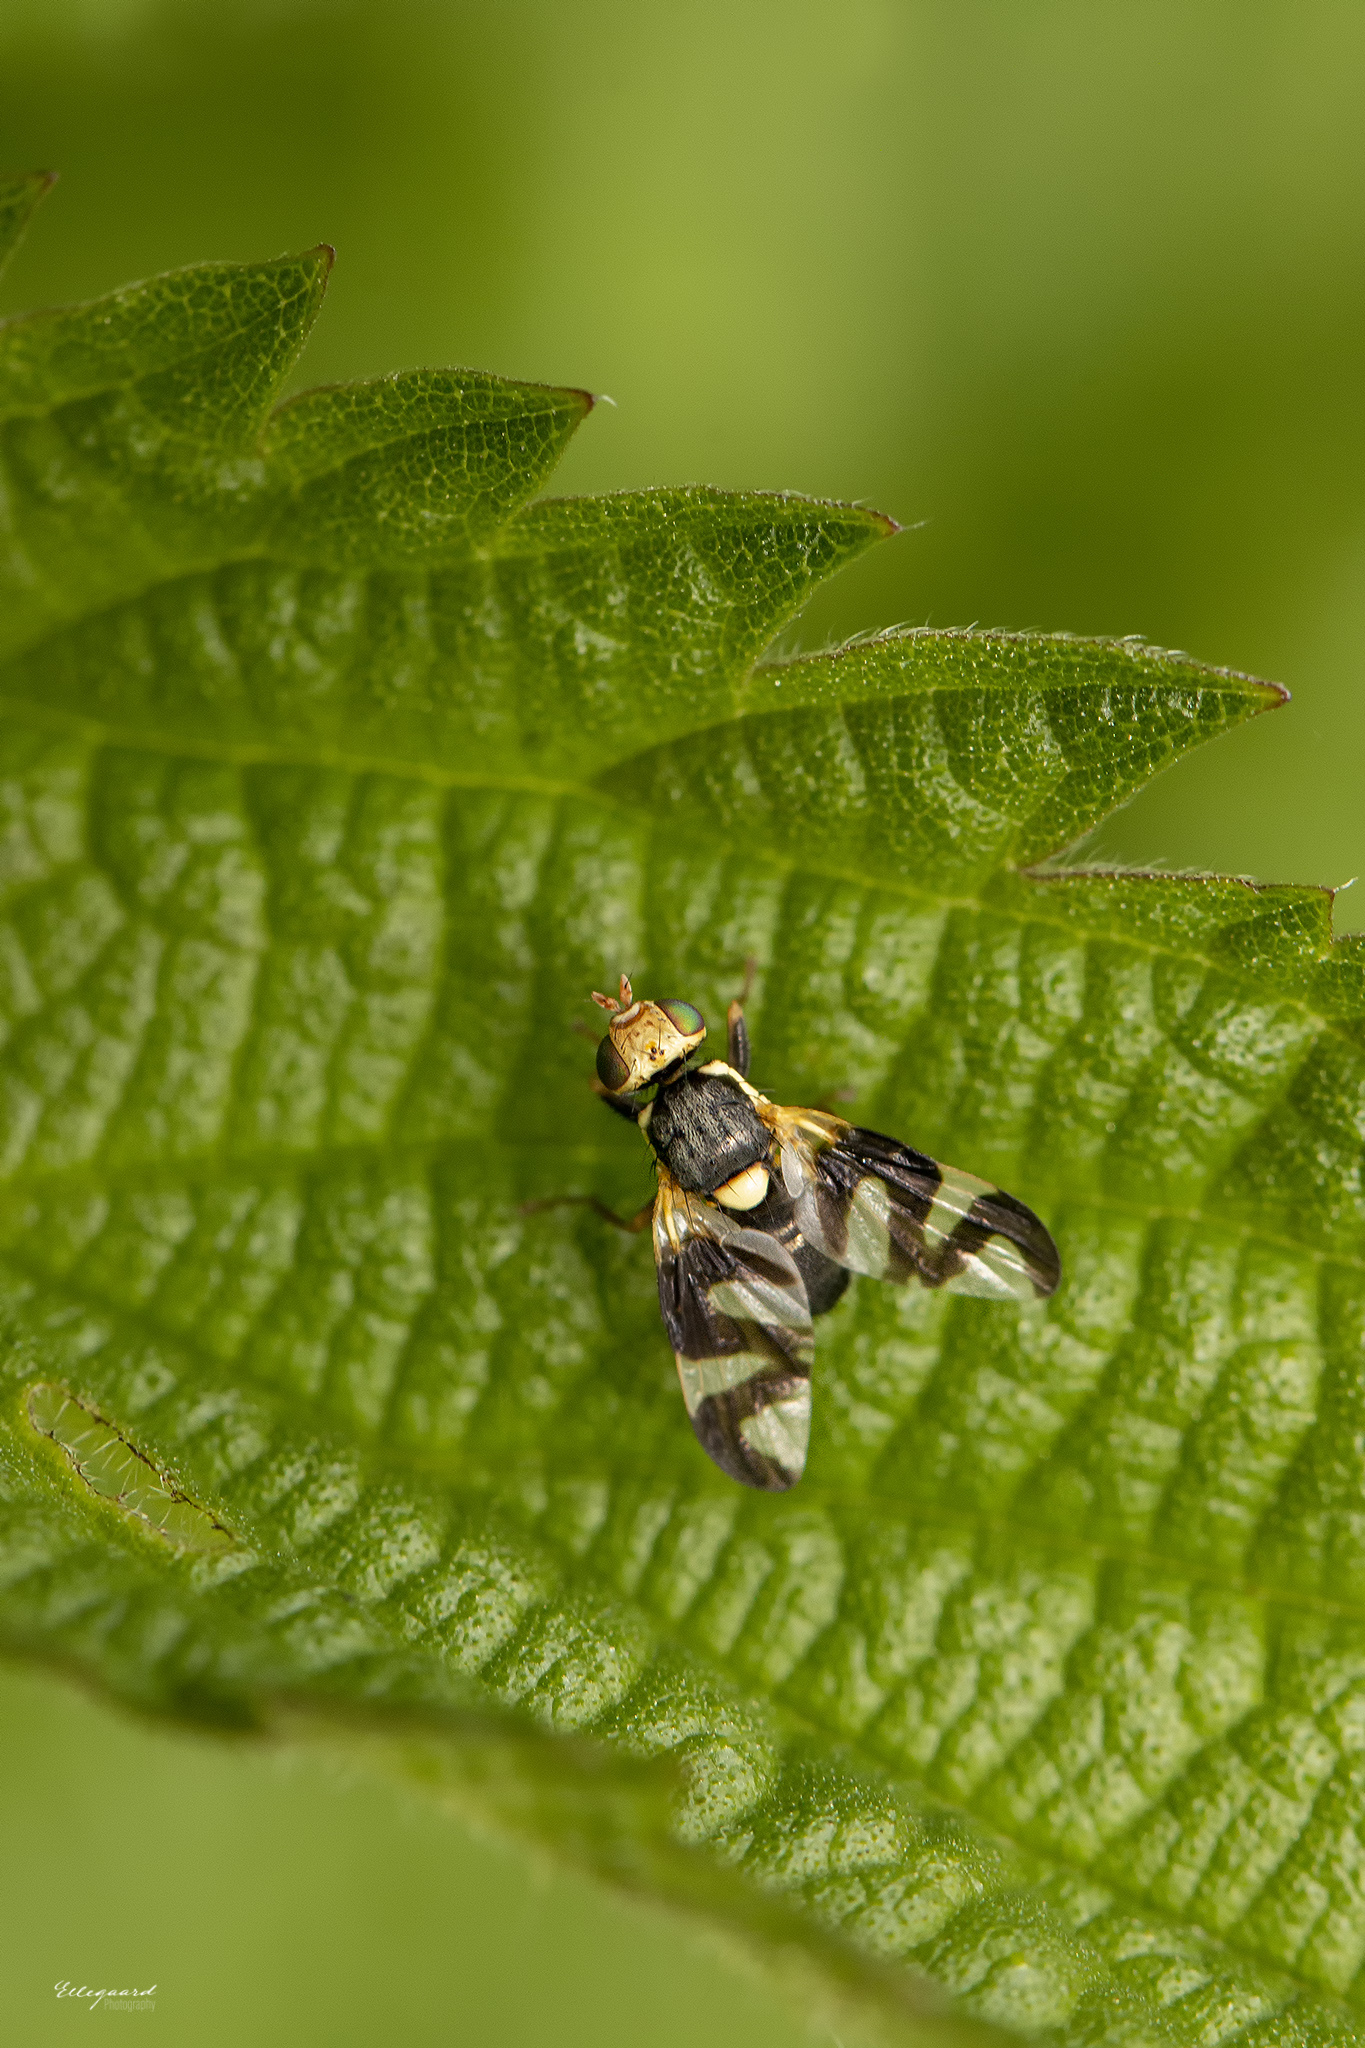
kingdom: Animalia
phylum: Arthropoda
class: Insecta
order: Diptera
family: Tephritidae
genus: Urophora
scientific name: Urophora cardui
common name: Fruit fly
